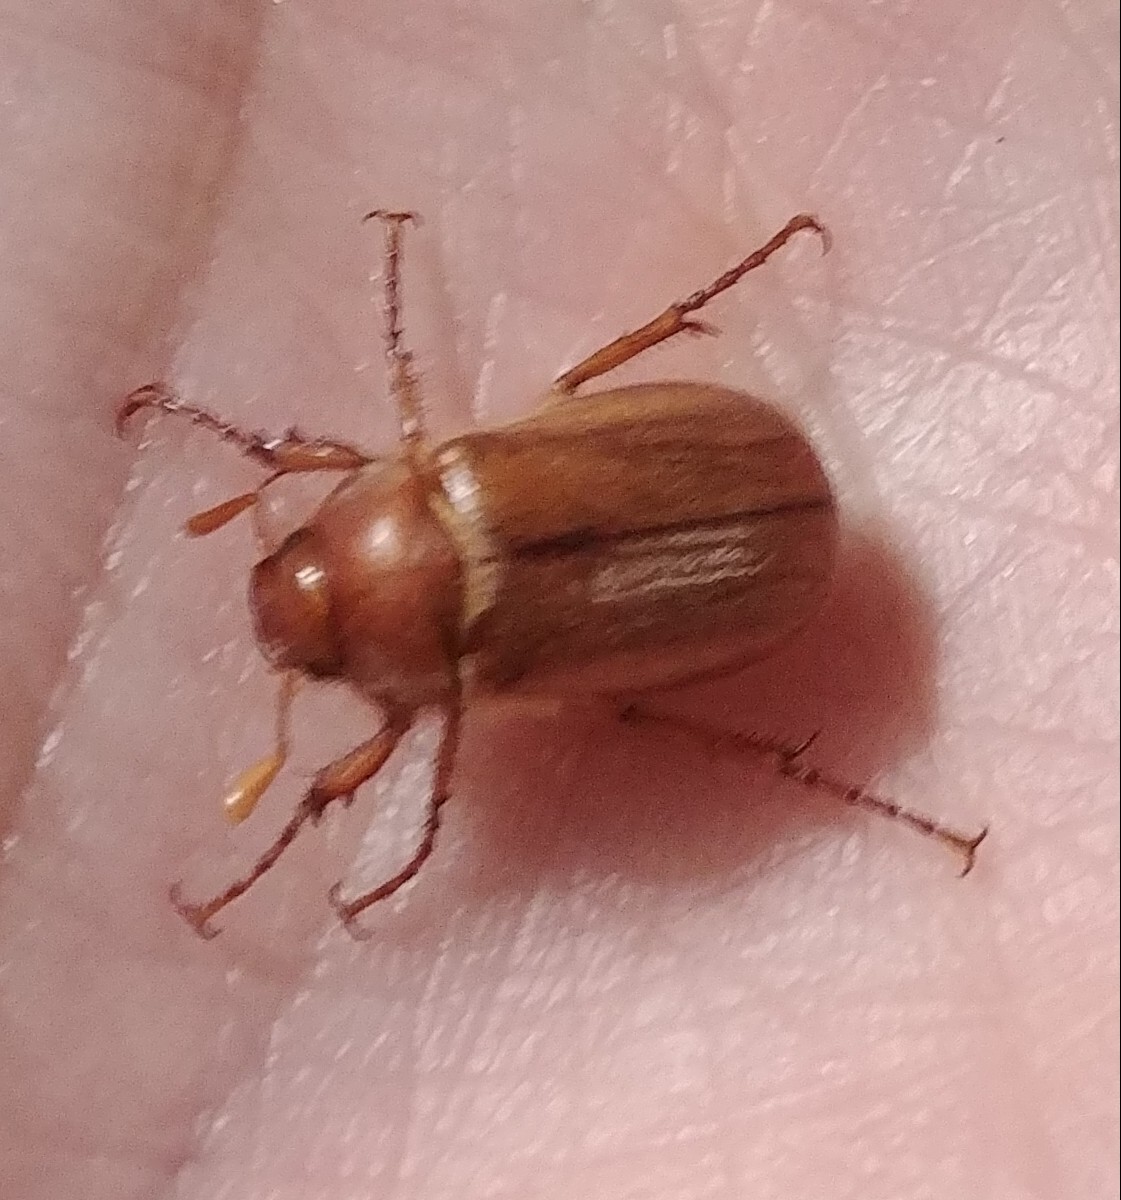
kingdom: Animalia
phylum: Arthropoda
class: Insecta
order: Coleoptera
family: Scarabaeidae
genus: Amphimallon
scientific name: Amphimallon majale
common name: European chafer
